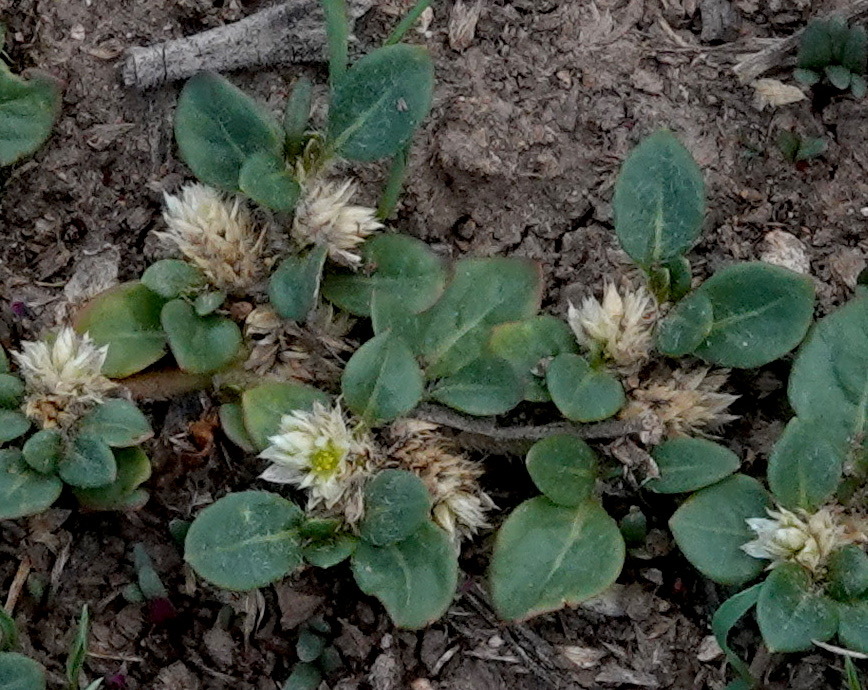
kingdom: Plantae
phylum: Tracheophyta
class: Magnoliopsida
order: Caryophyllales
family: Amaranthaceae
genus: Alternanthera
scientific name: Alternanthera caracasana
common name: Washerwoman
